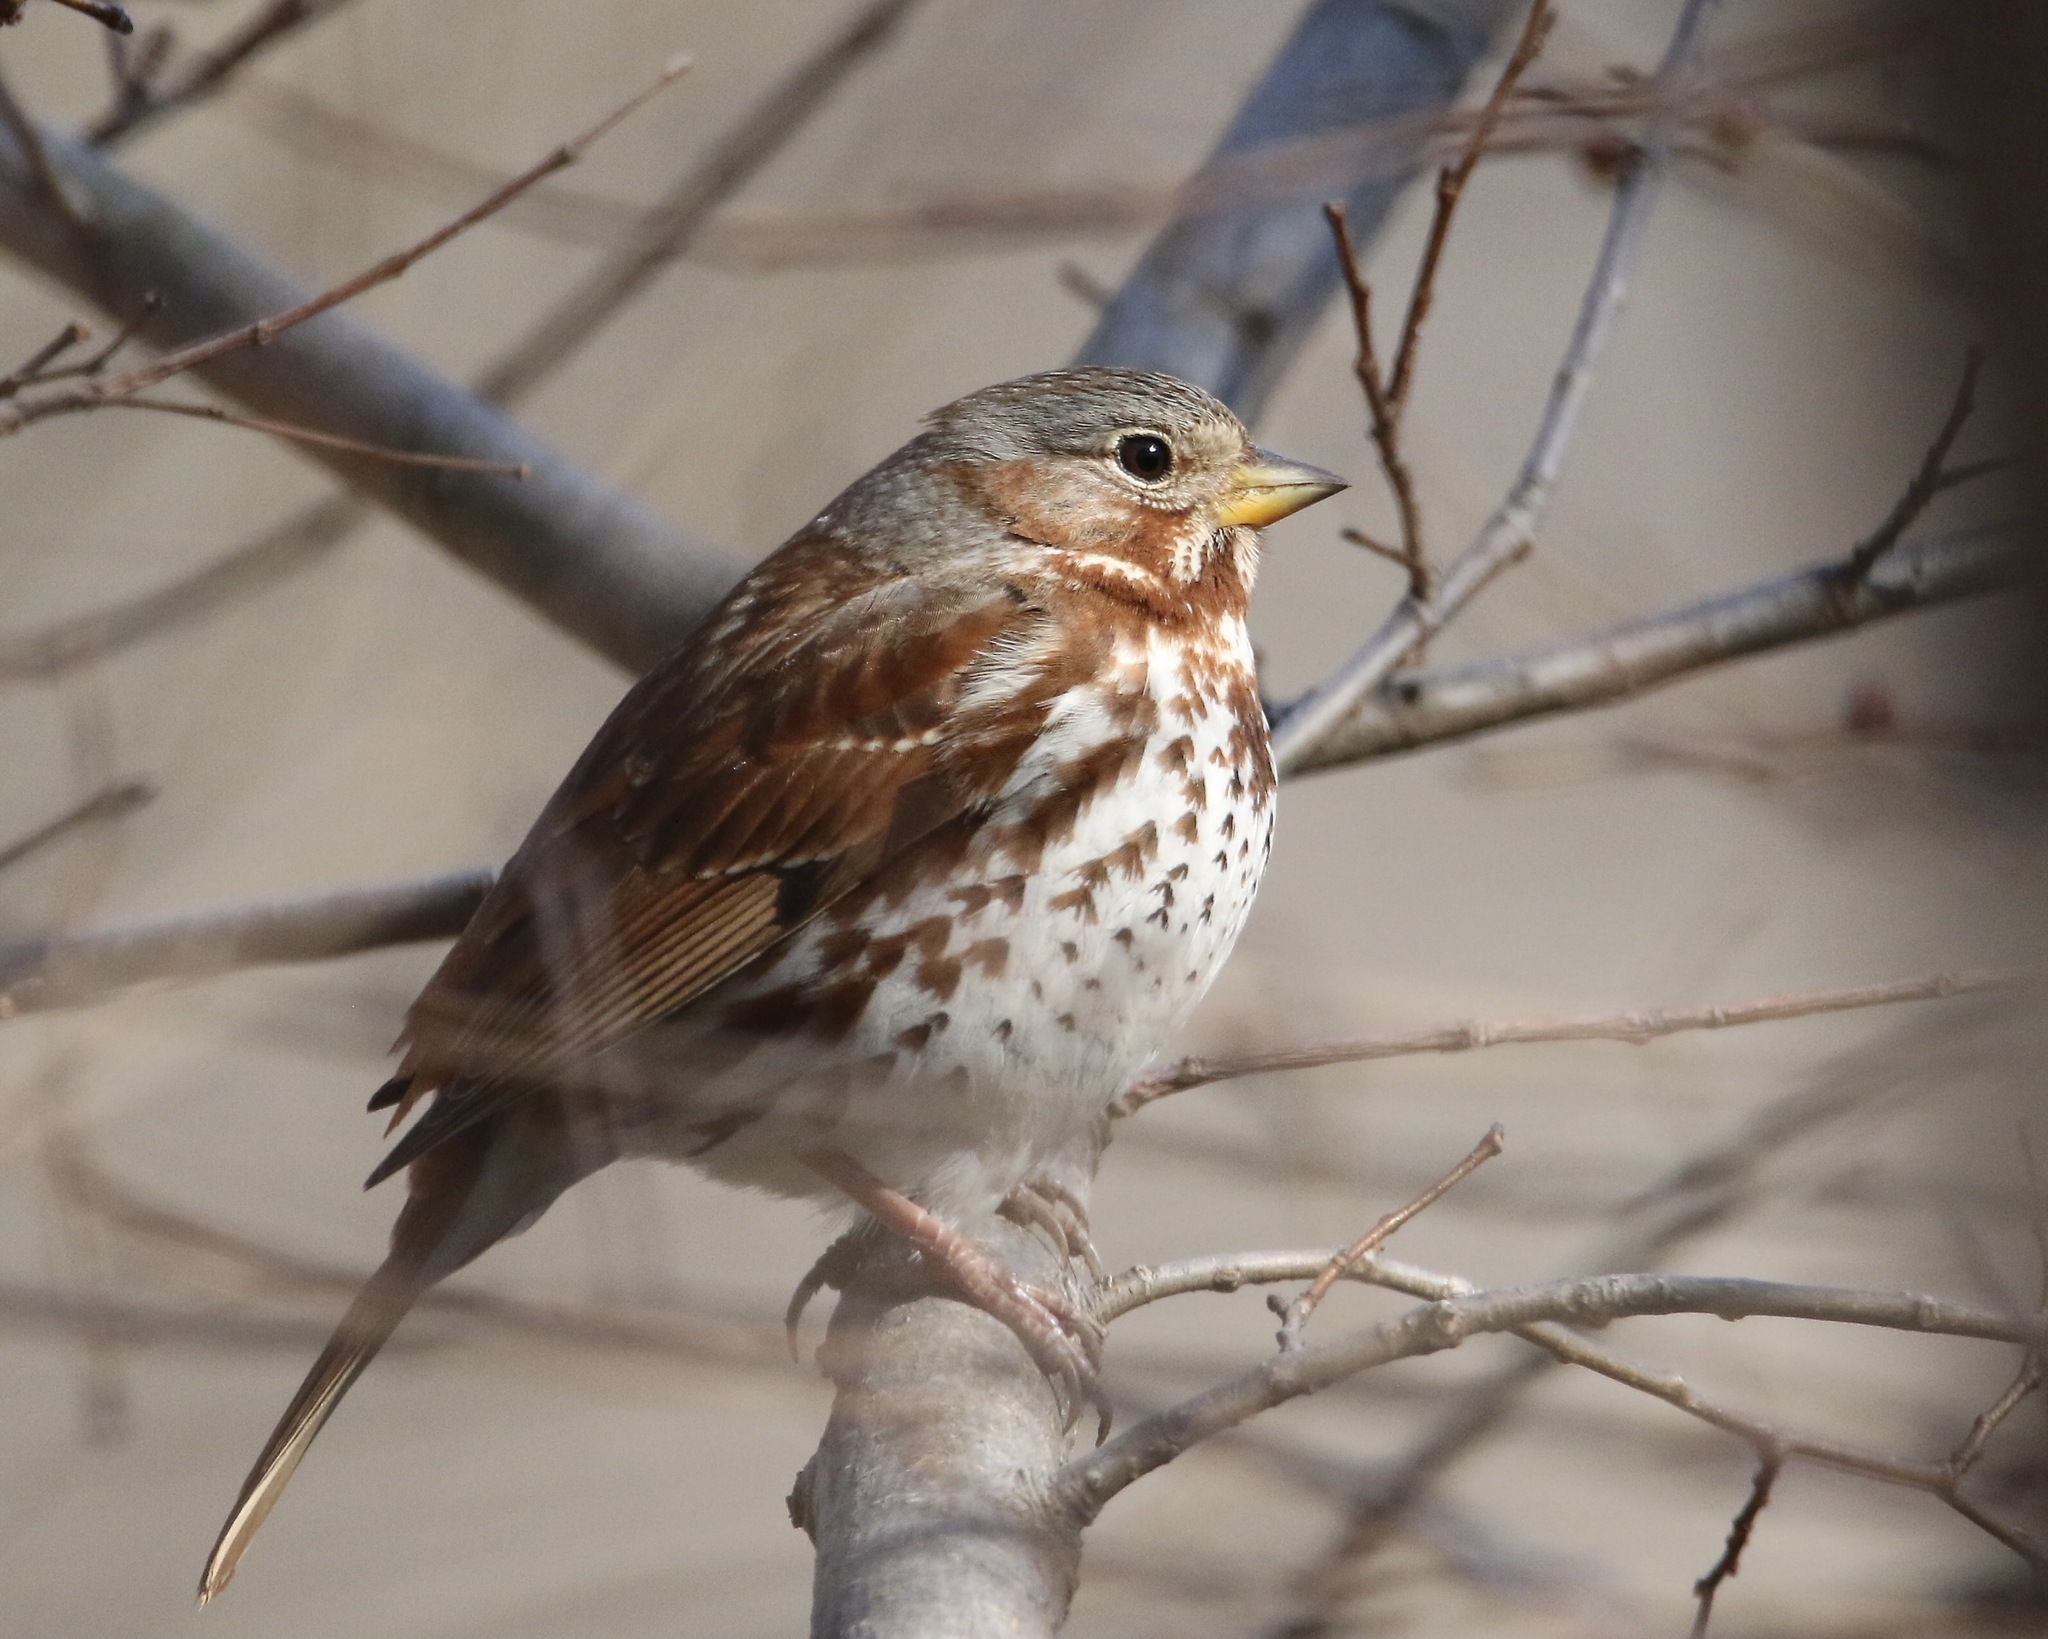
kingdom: Animalia
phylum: Chordata
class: Aves
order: Passeriformes
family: Passerellidae
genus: Passerella
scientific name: Passerella iliaca
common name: Fox sparrow
